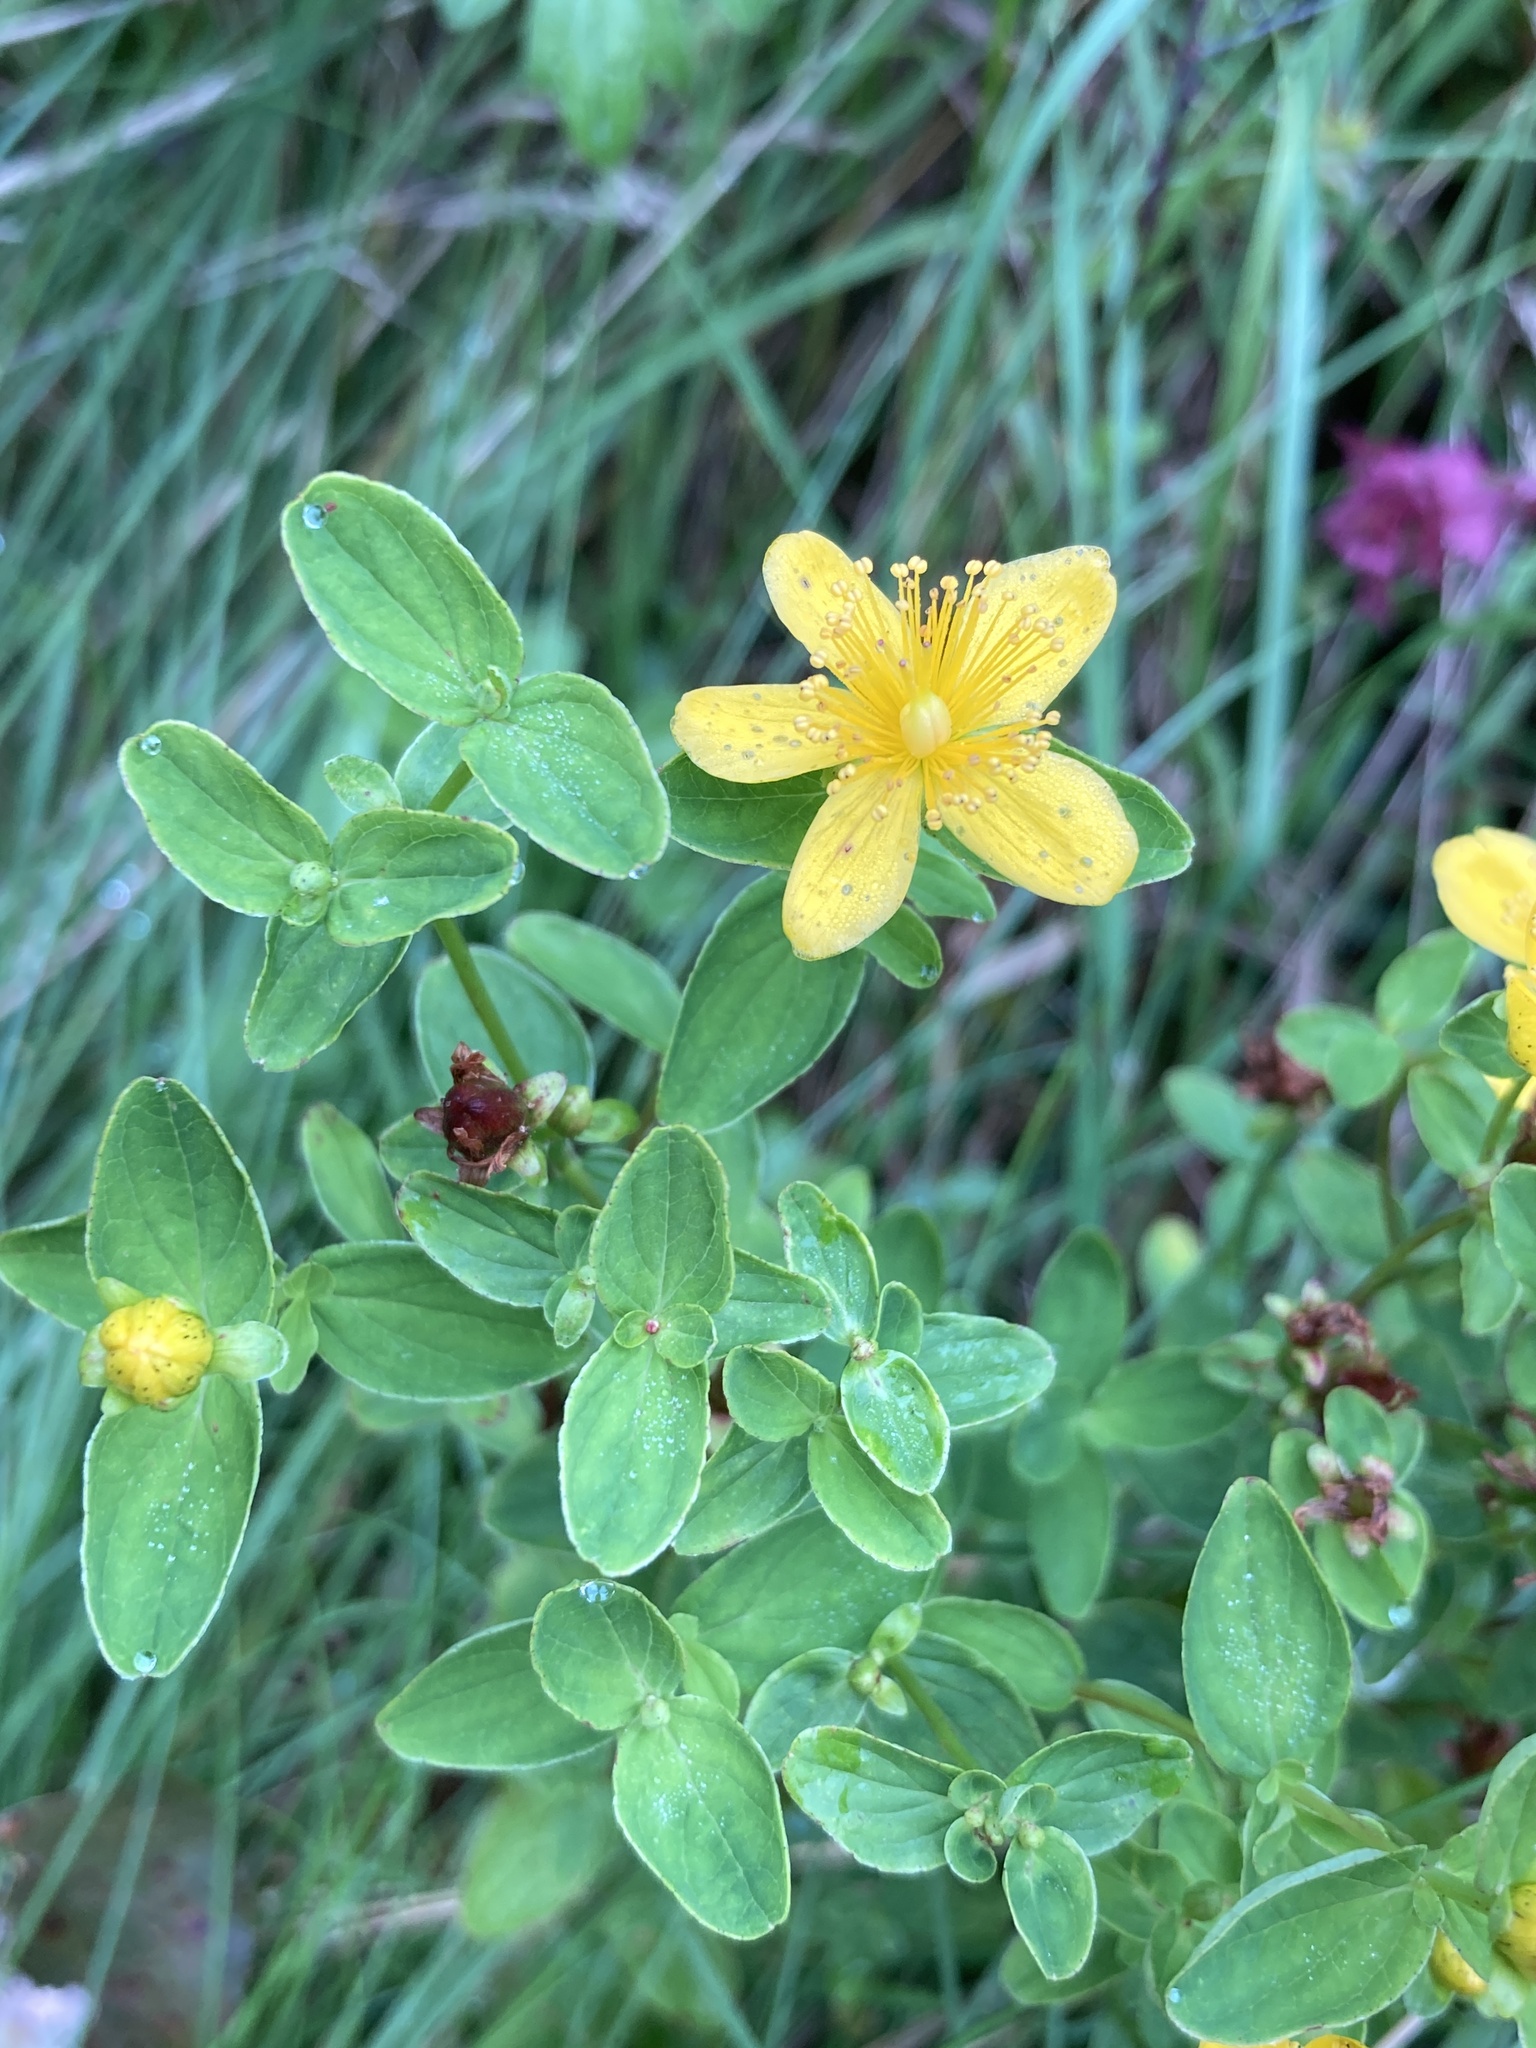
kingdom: Plantae
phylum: Tracheophyta
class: Magnoliopsida
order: Malpighiales
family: Hypericaceae
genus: Hypericum
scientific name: Hypericum maculatum
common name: Imperforate st. john's-wort
